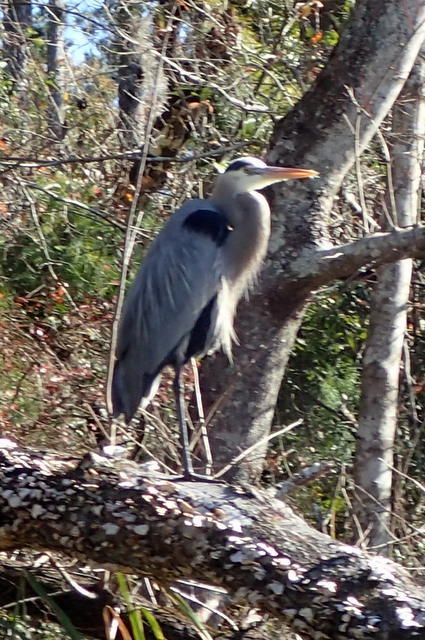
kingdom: Animalia
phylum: Chordata
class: Aves
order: Pelecaniformes
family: Ardeidae
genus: Ardea
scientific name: Ardea herodias
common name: Great blue heron
